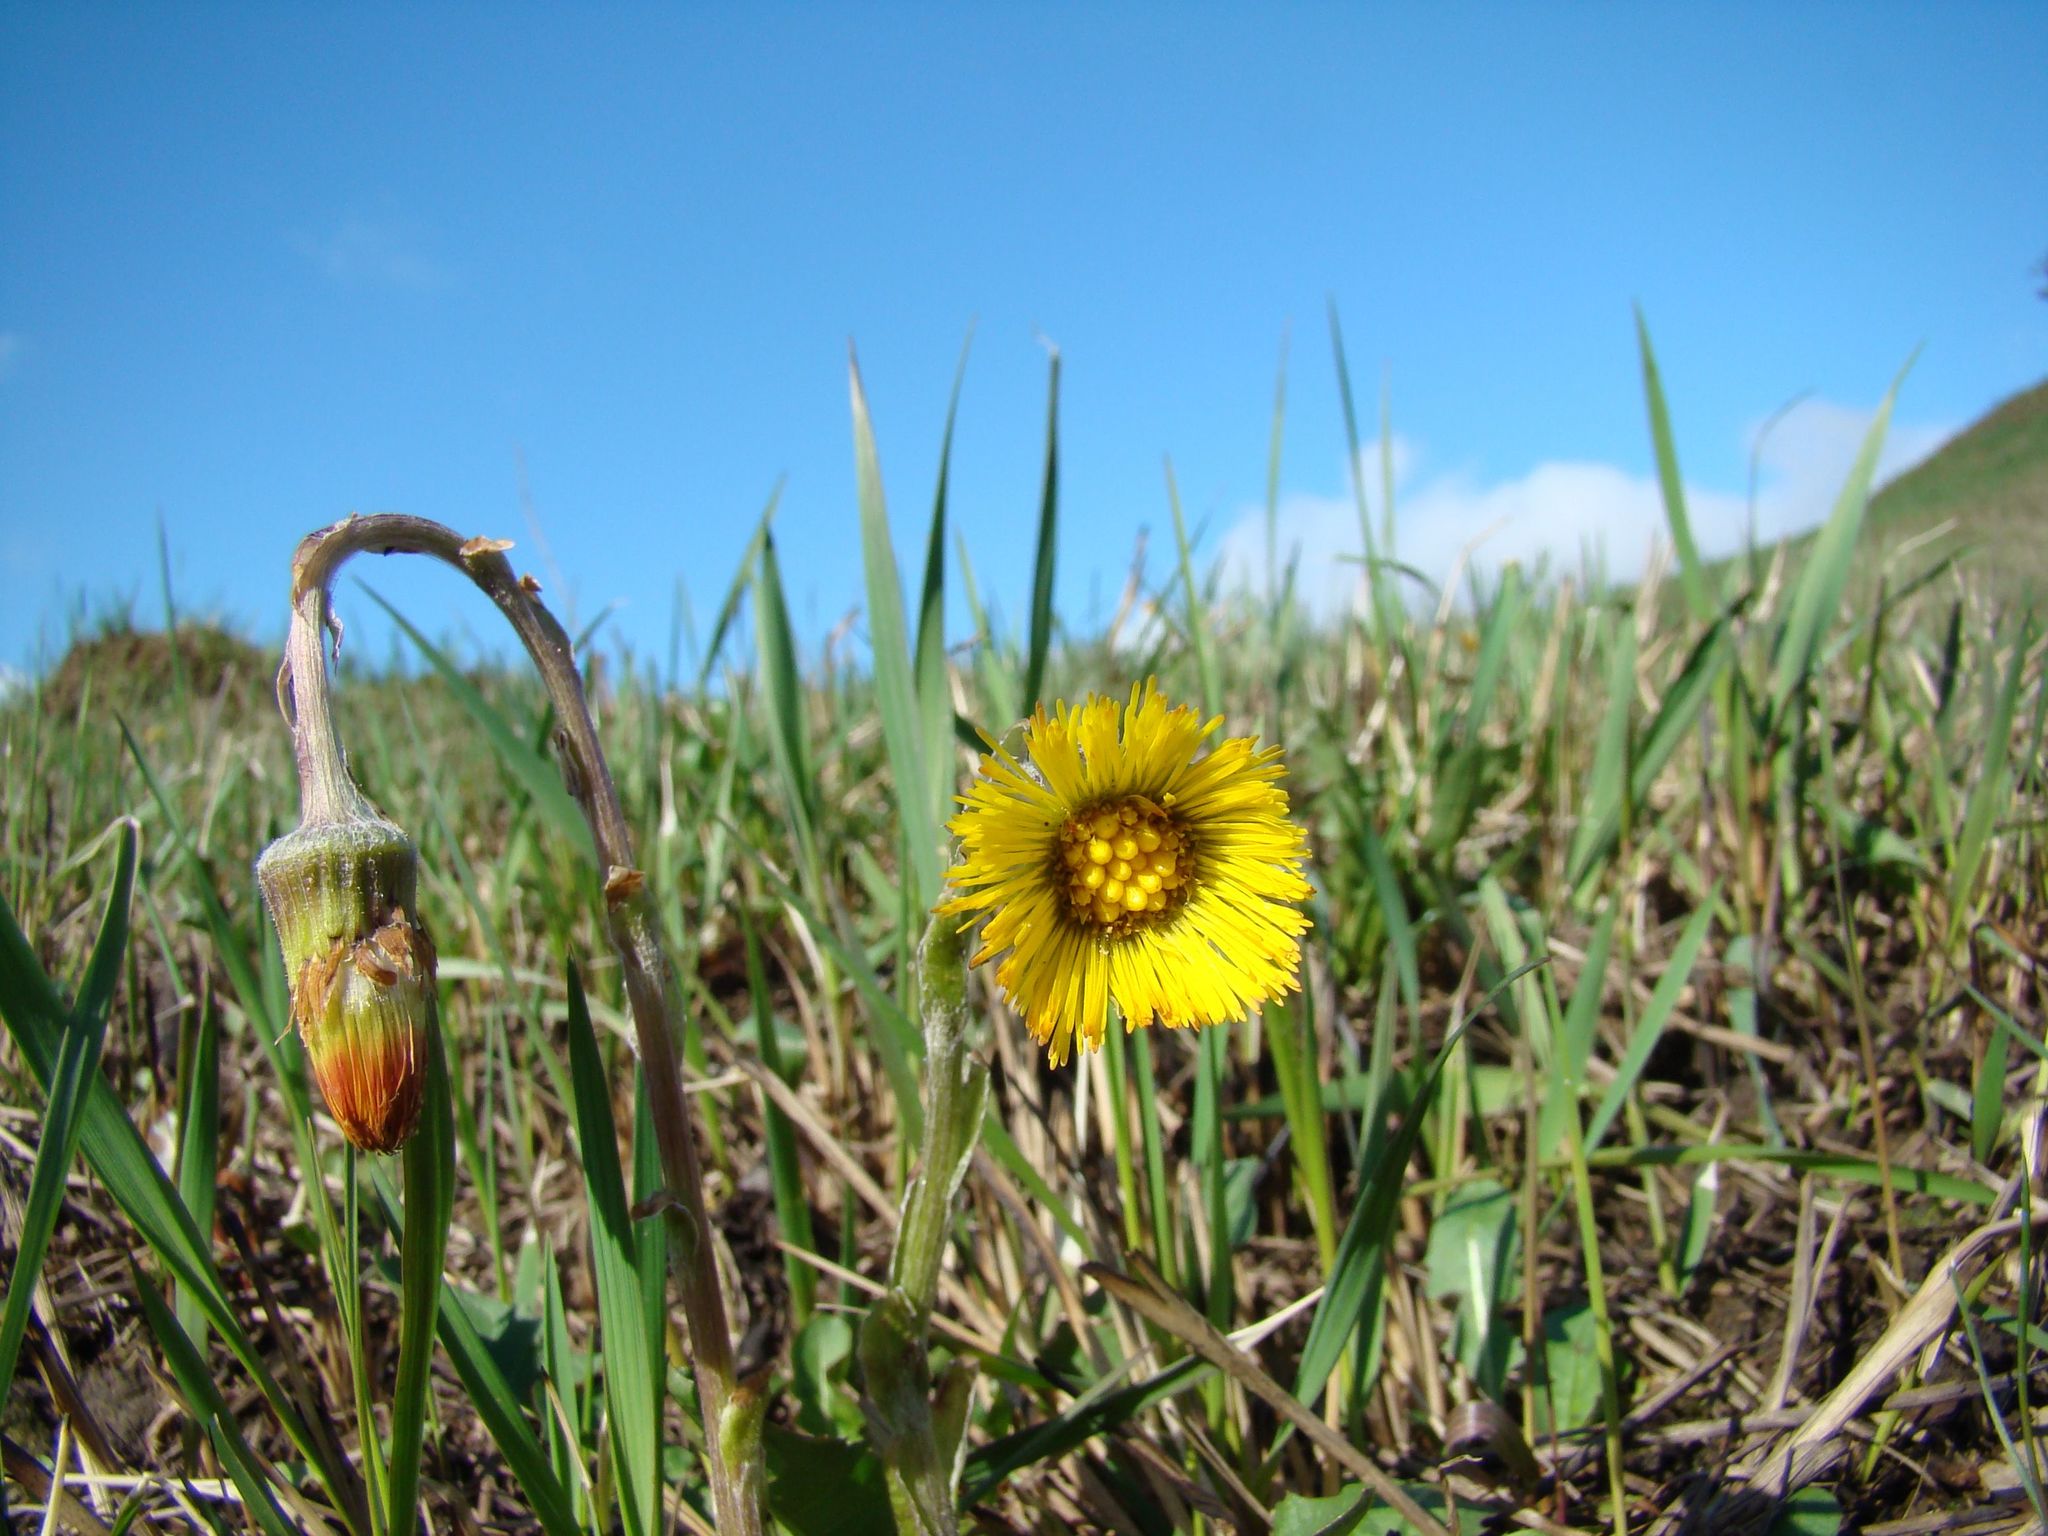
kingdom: Plantae
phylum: Tracheophyta
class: Magnoliopsida
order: Asterales
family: Asteraceae
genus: Tussilago
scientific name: Tussilago farfara
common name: Coltsfoot
